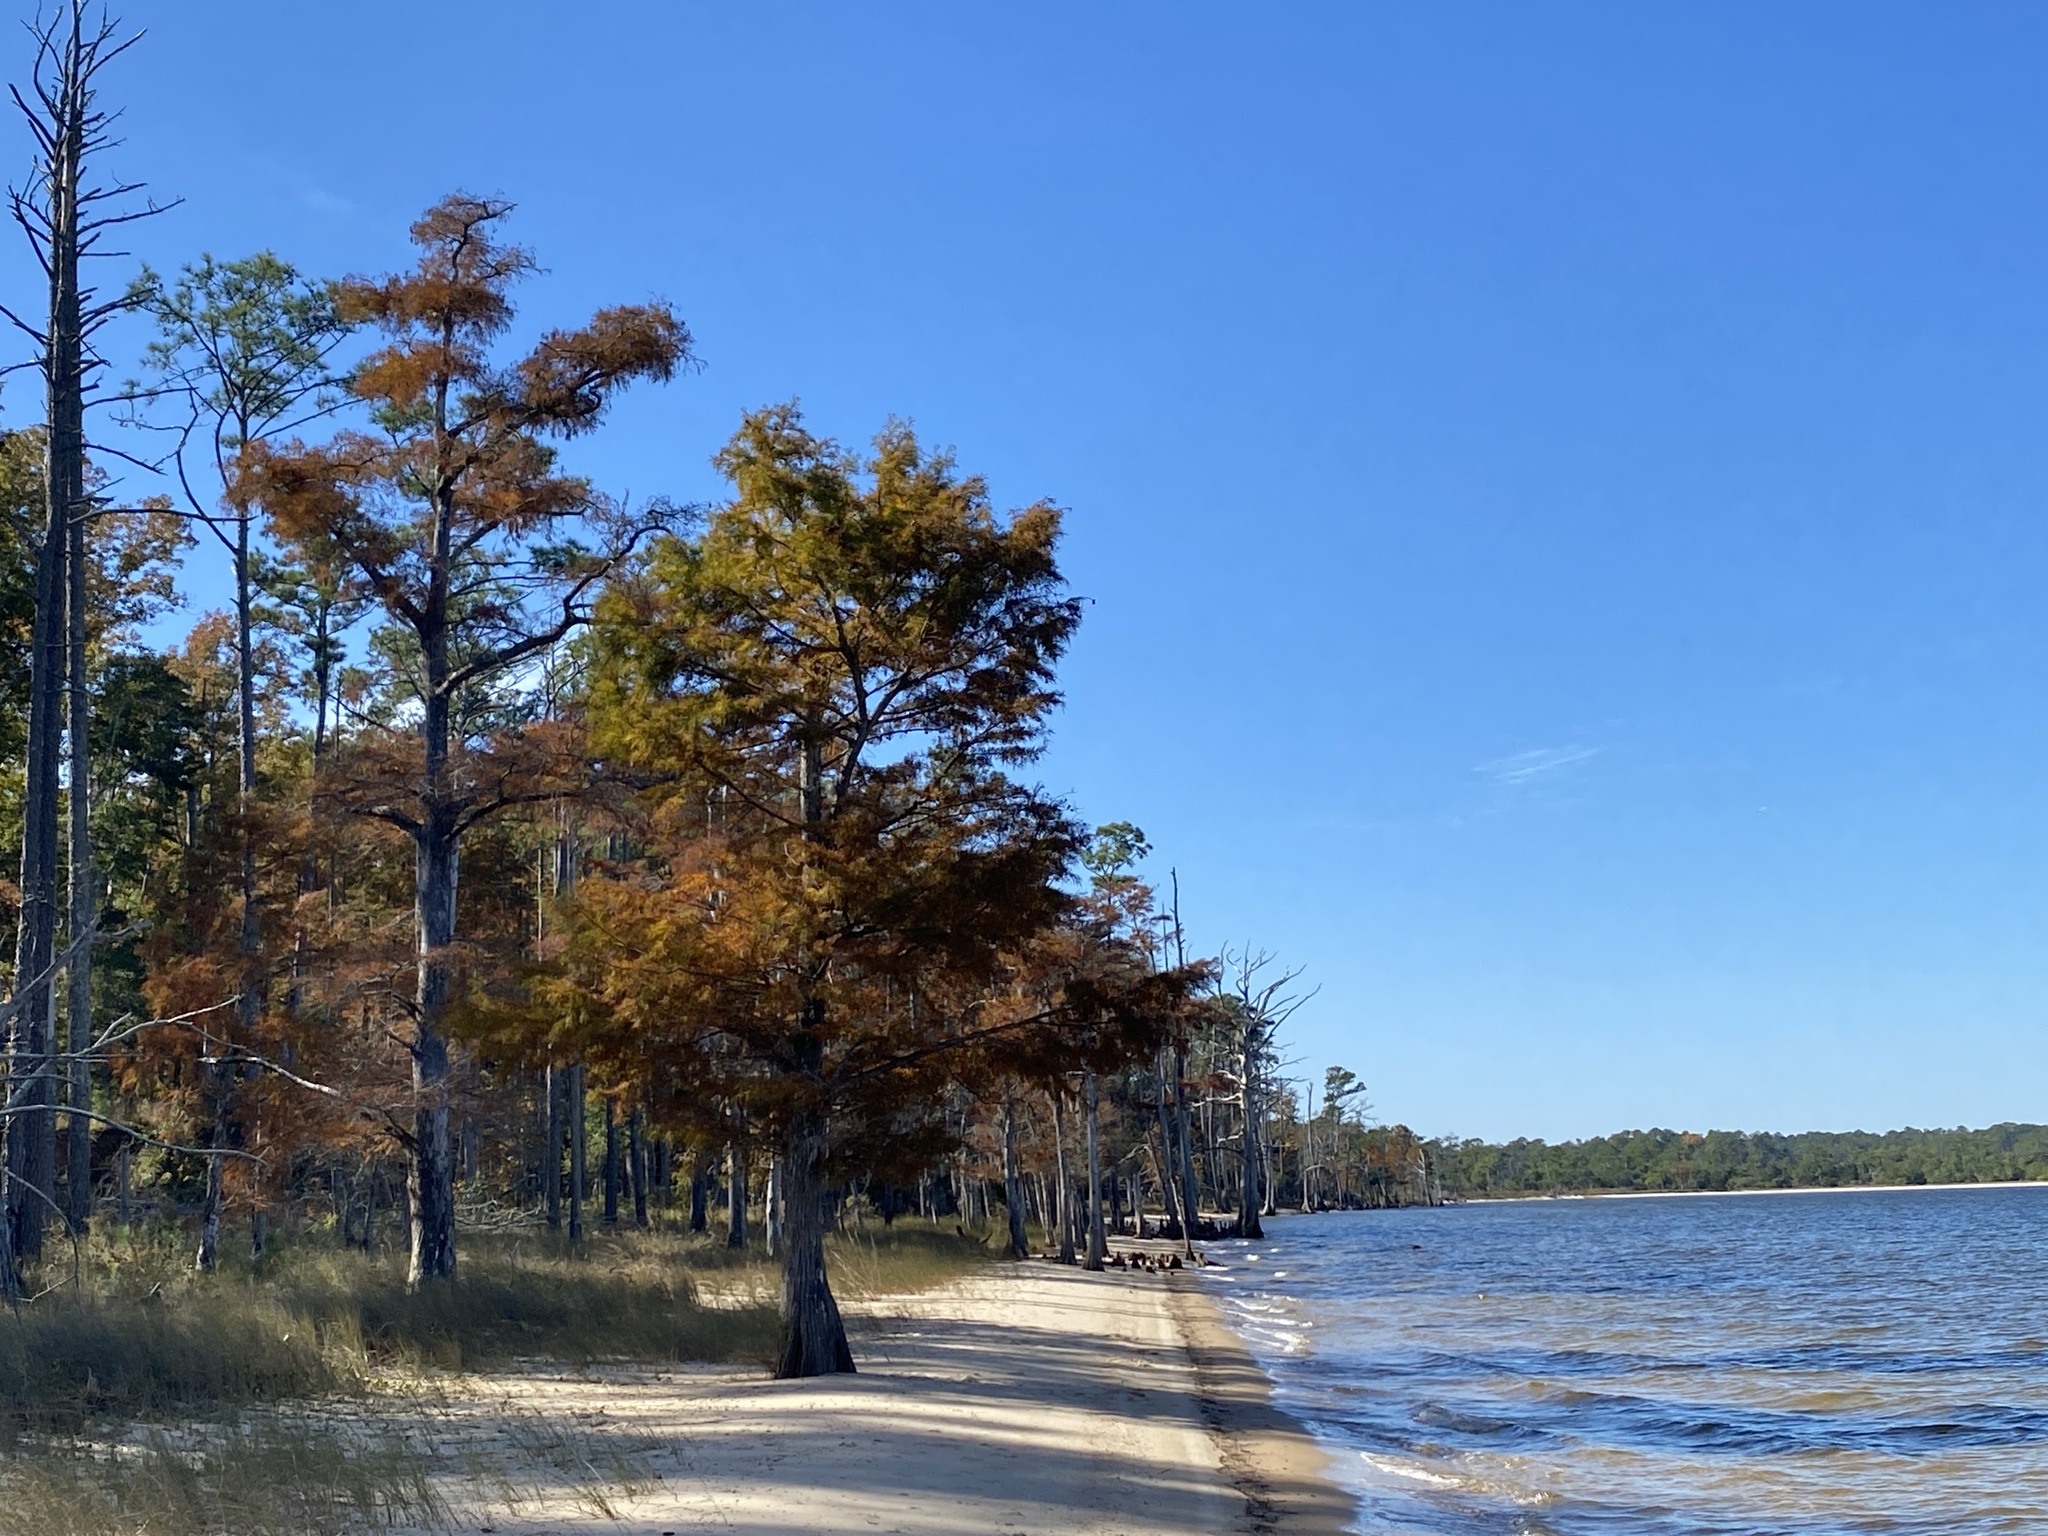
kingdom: Plantae
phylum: Tracheophyta
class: Pinopsida
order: Pinales
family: Cupressaceae
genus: Taxodium
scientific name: Taxodium distichum
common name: Bald cypress
